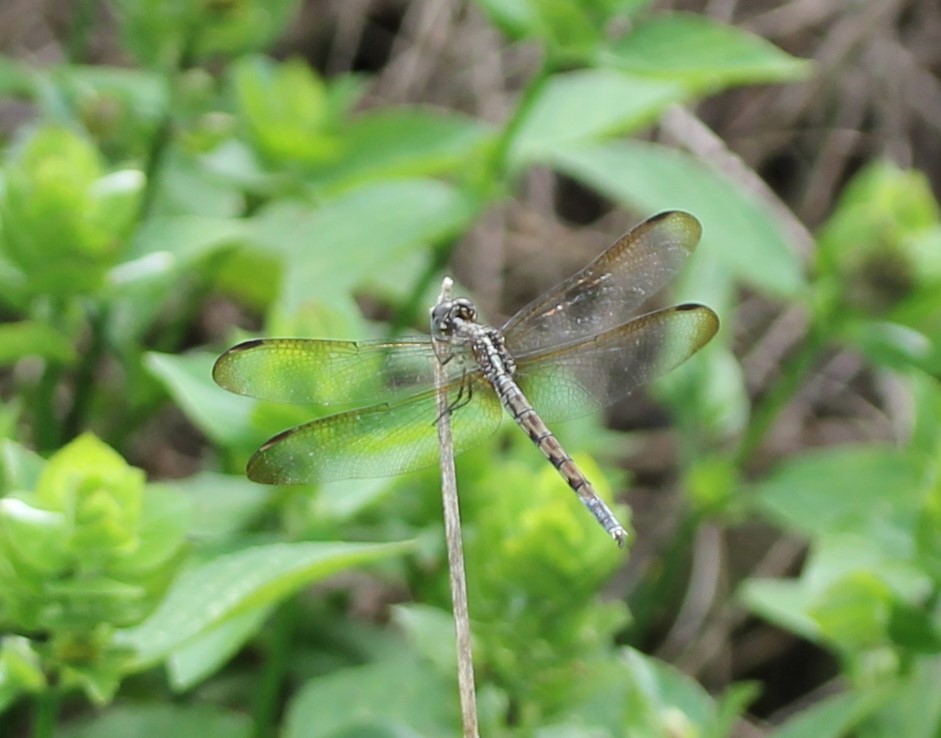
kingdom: Animalia
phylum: Arthropoda
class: Insecta
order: Odonata
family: Libellulidae
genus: Erythrodiplax
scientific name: Erythrodiplax umbrata
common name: Band-winged dragonlet
